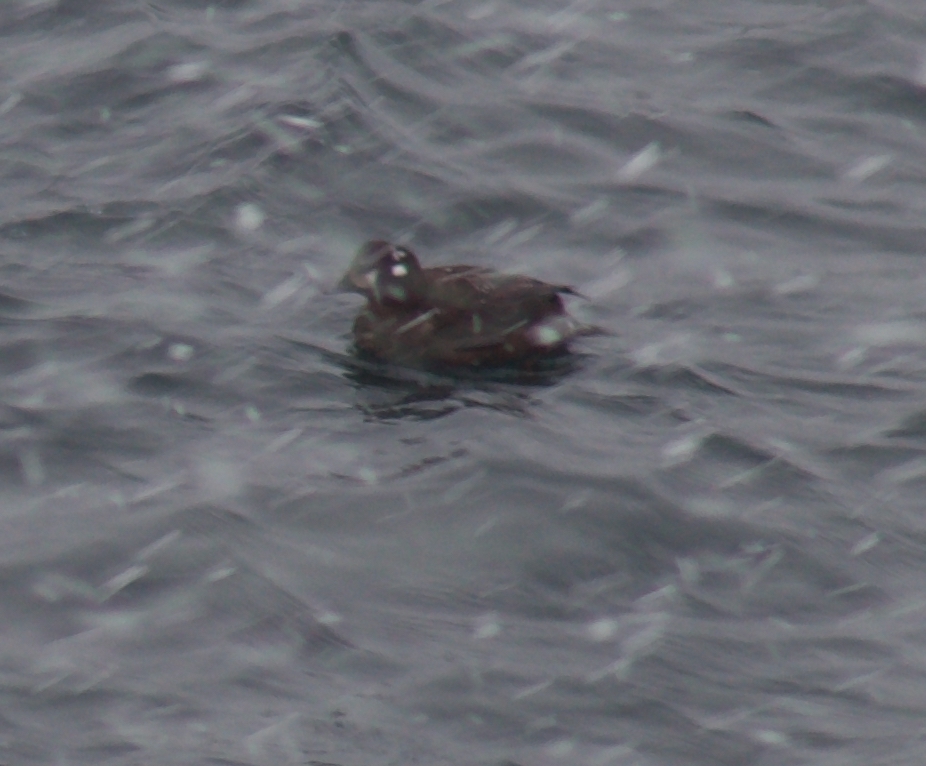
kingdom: Animalia
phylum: Chordata
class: Aves
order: Anseriformes
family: Anatidae
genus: Histrionicus
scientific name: Histrionicus histrionicus
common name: Harlequin duck
